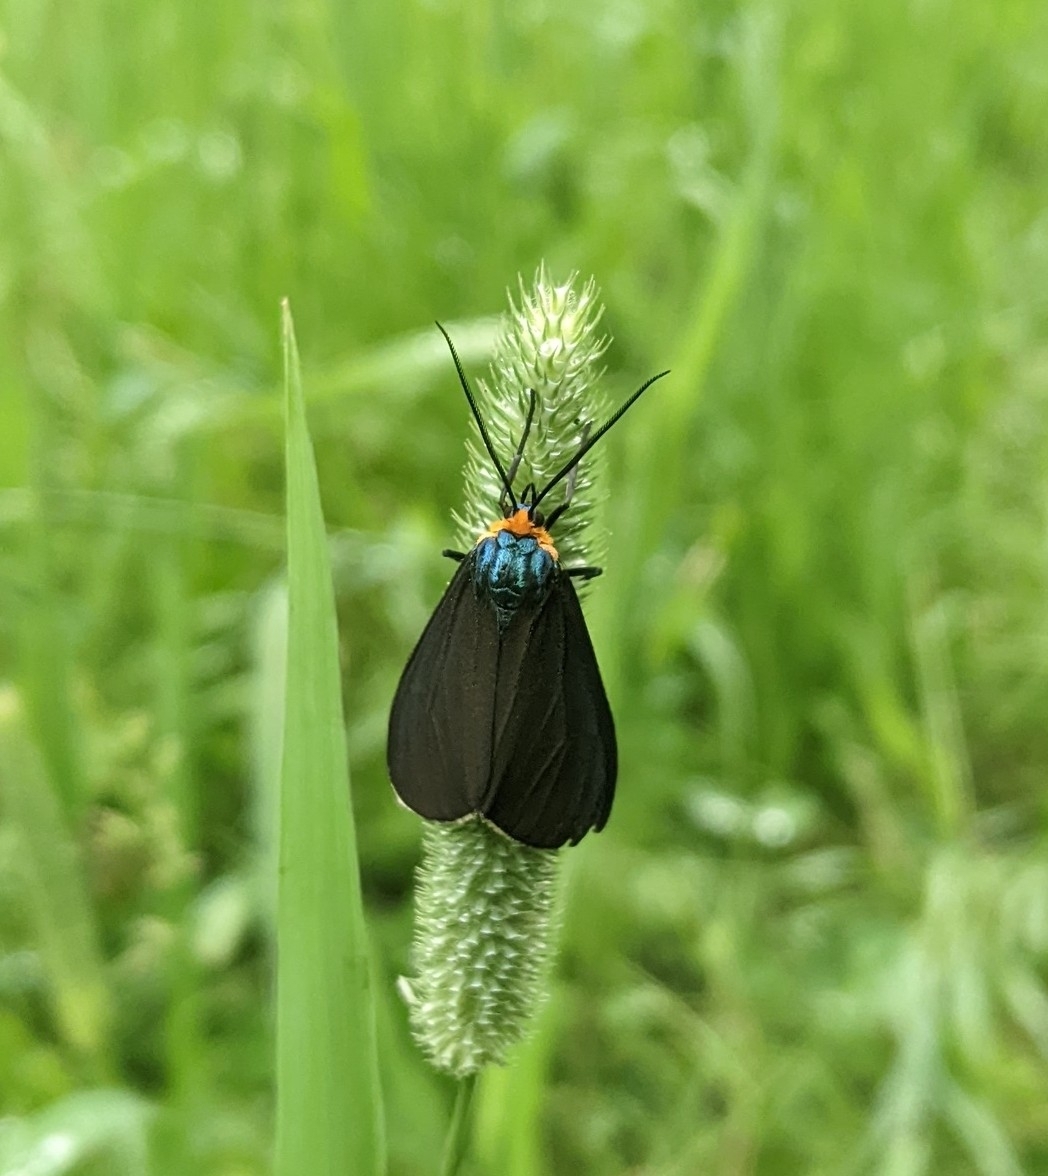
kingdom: Animalia
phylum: Arthropoda
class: Insecta
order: Lepidoptera
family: Erebidae
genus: Ctenucha
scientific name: Ctenucha virginica
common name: Virginia ctenucha moth
